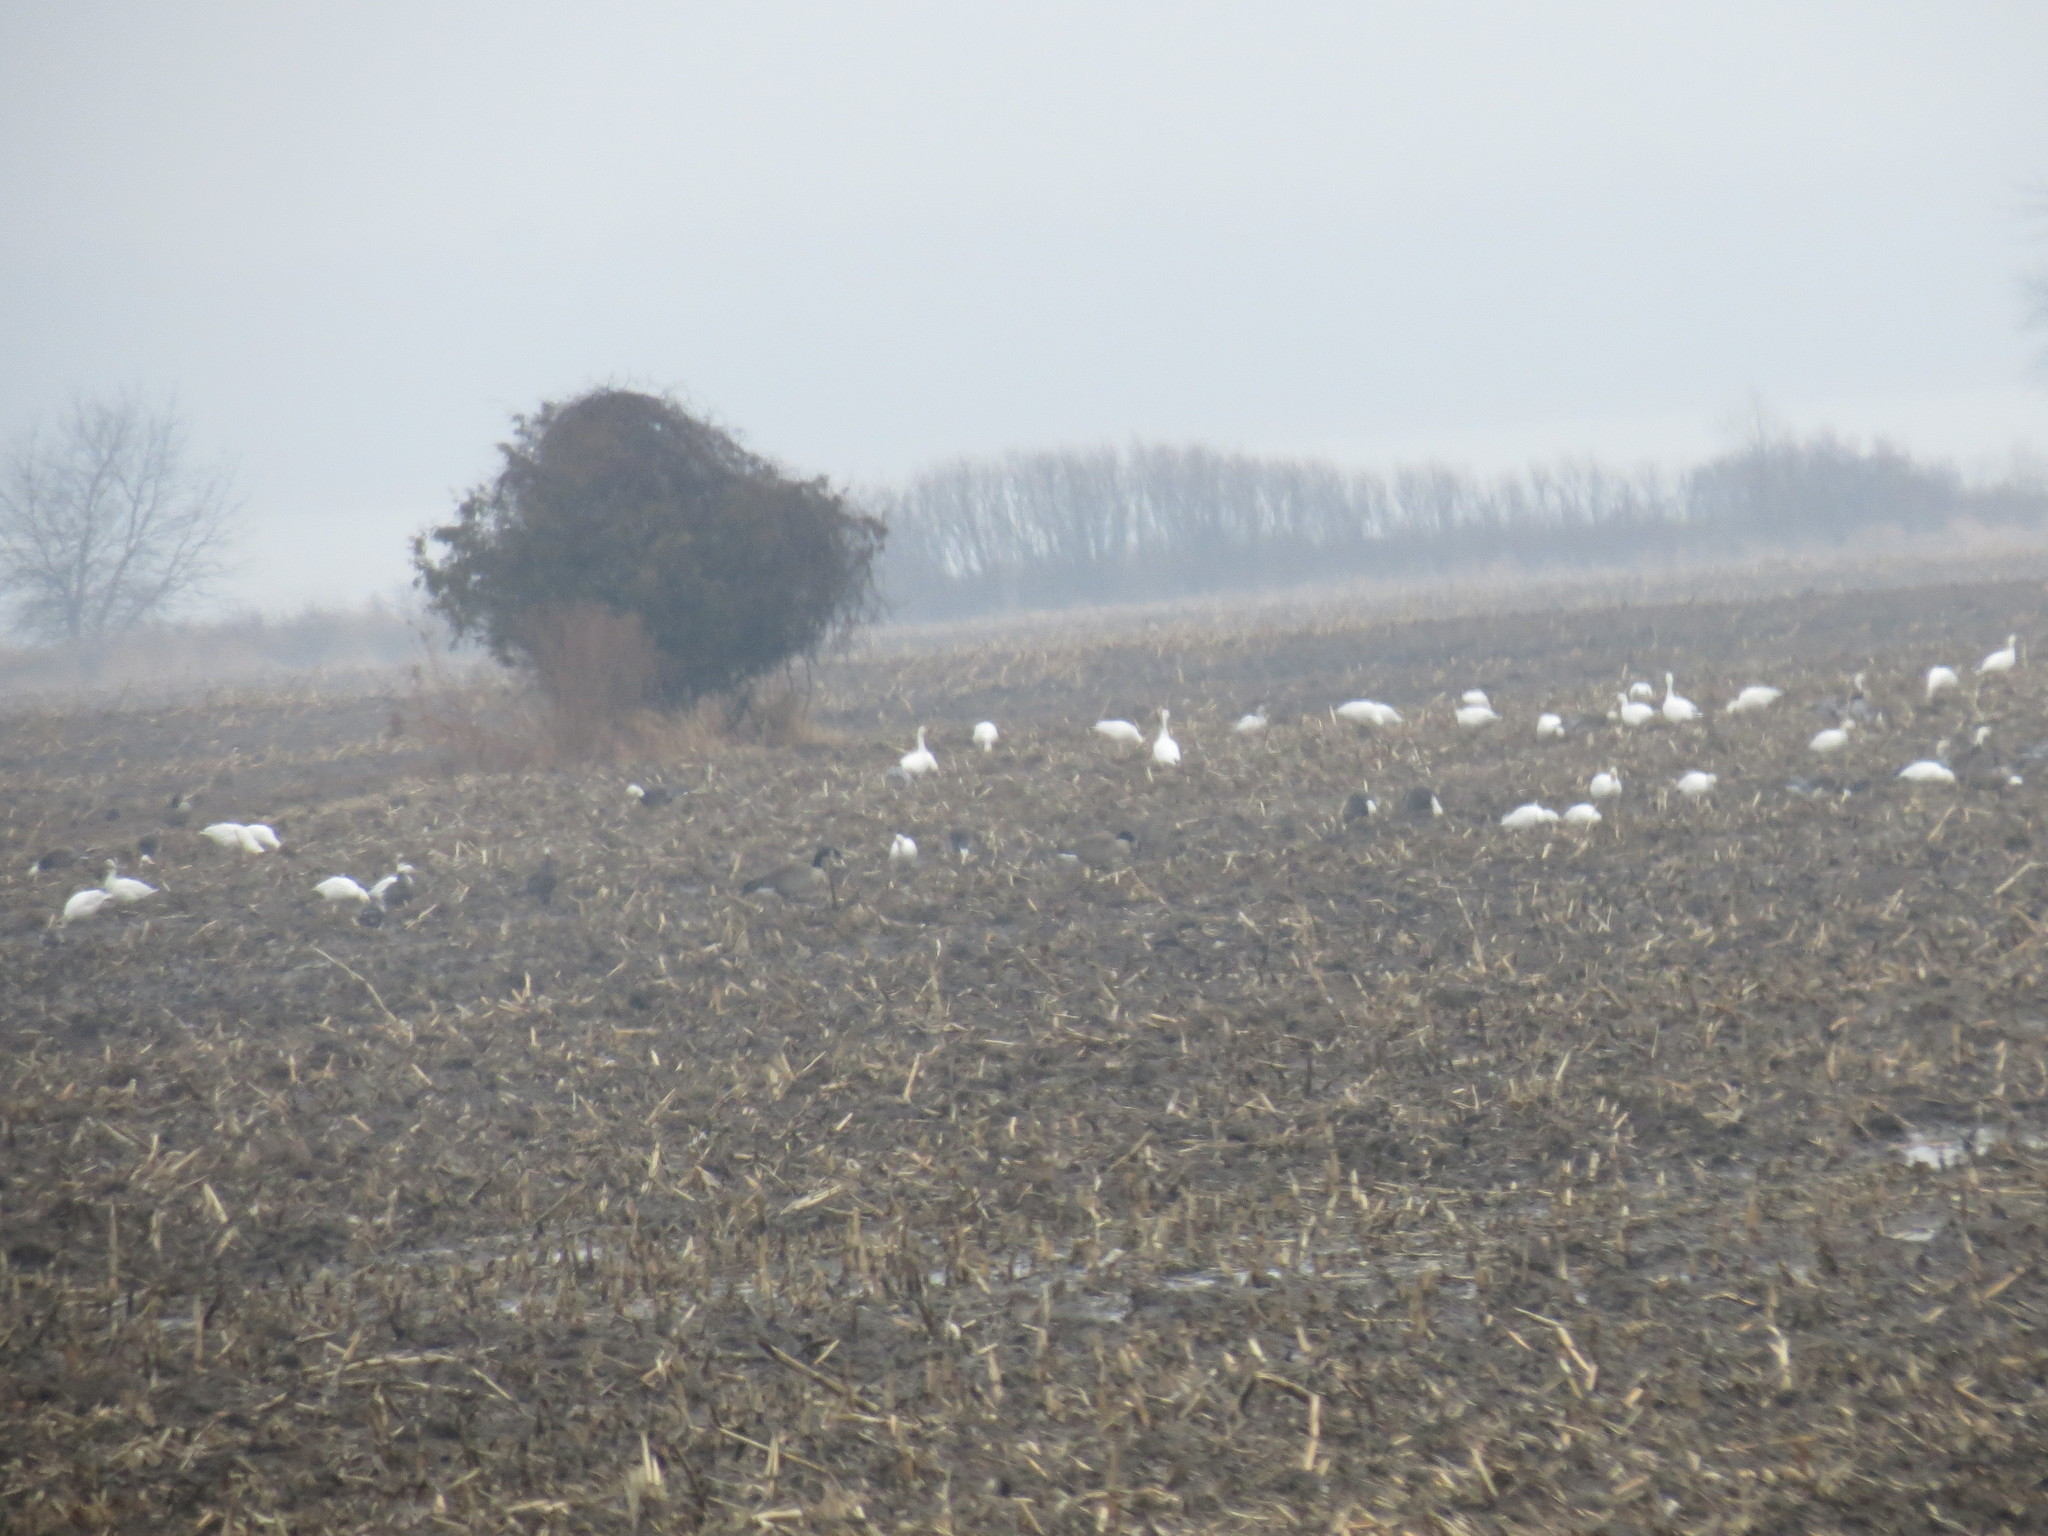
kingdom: Animalia
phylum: Chordata
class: Aves
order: Anseriformes
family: Anatidae
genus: Anser
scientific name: Anser caerulescens
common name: Snow goose
